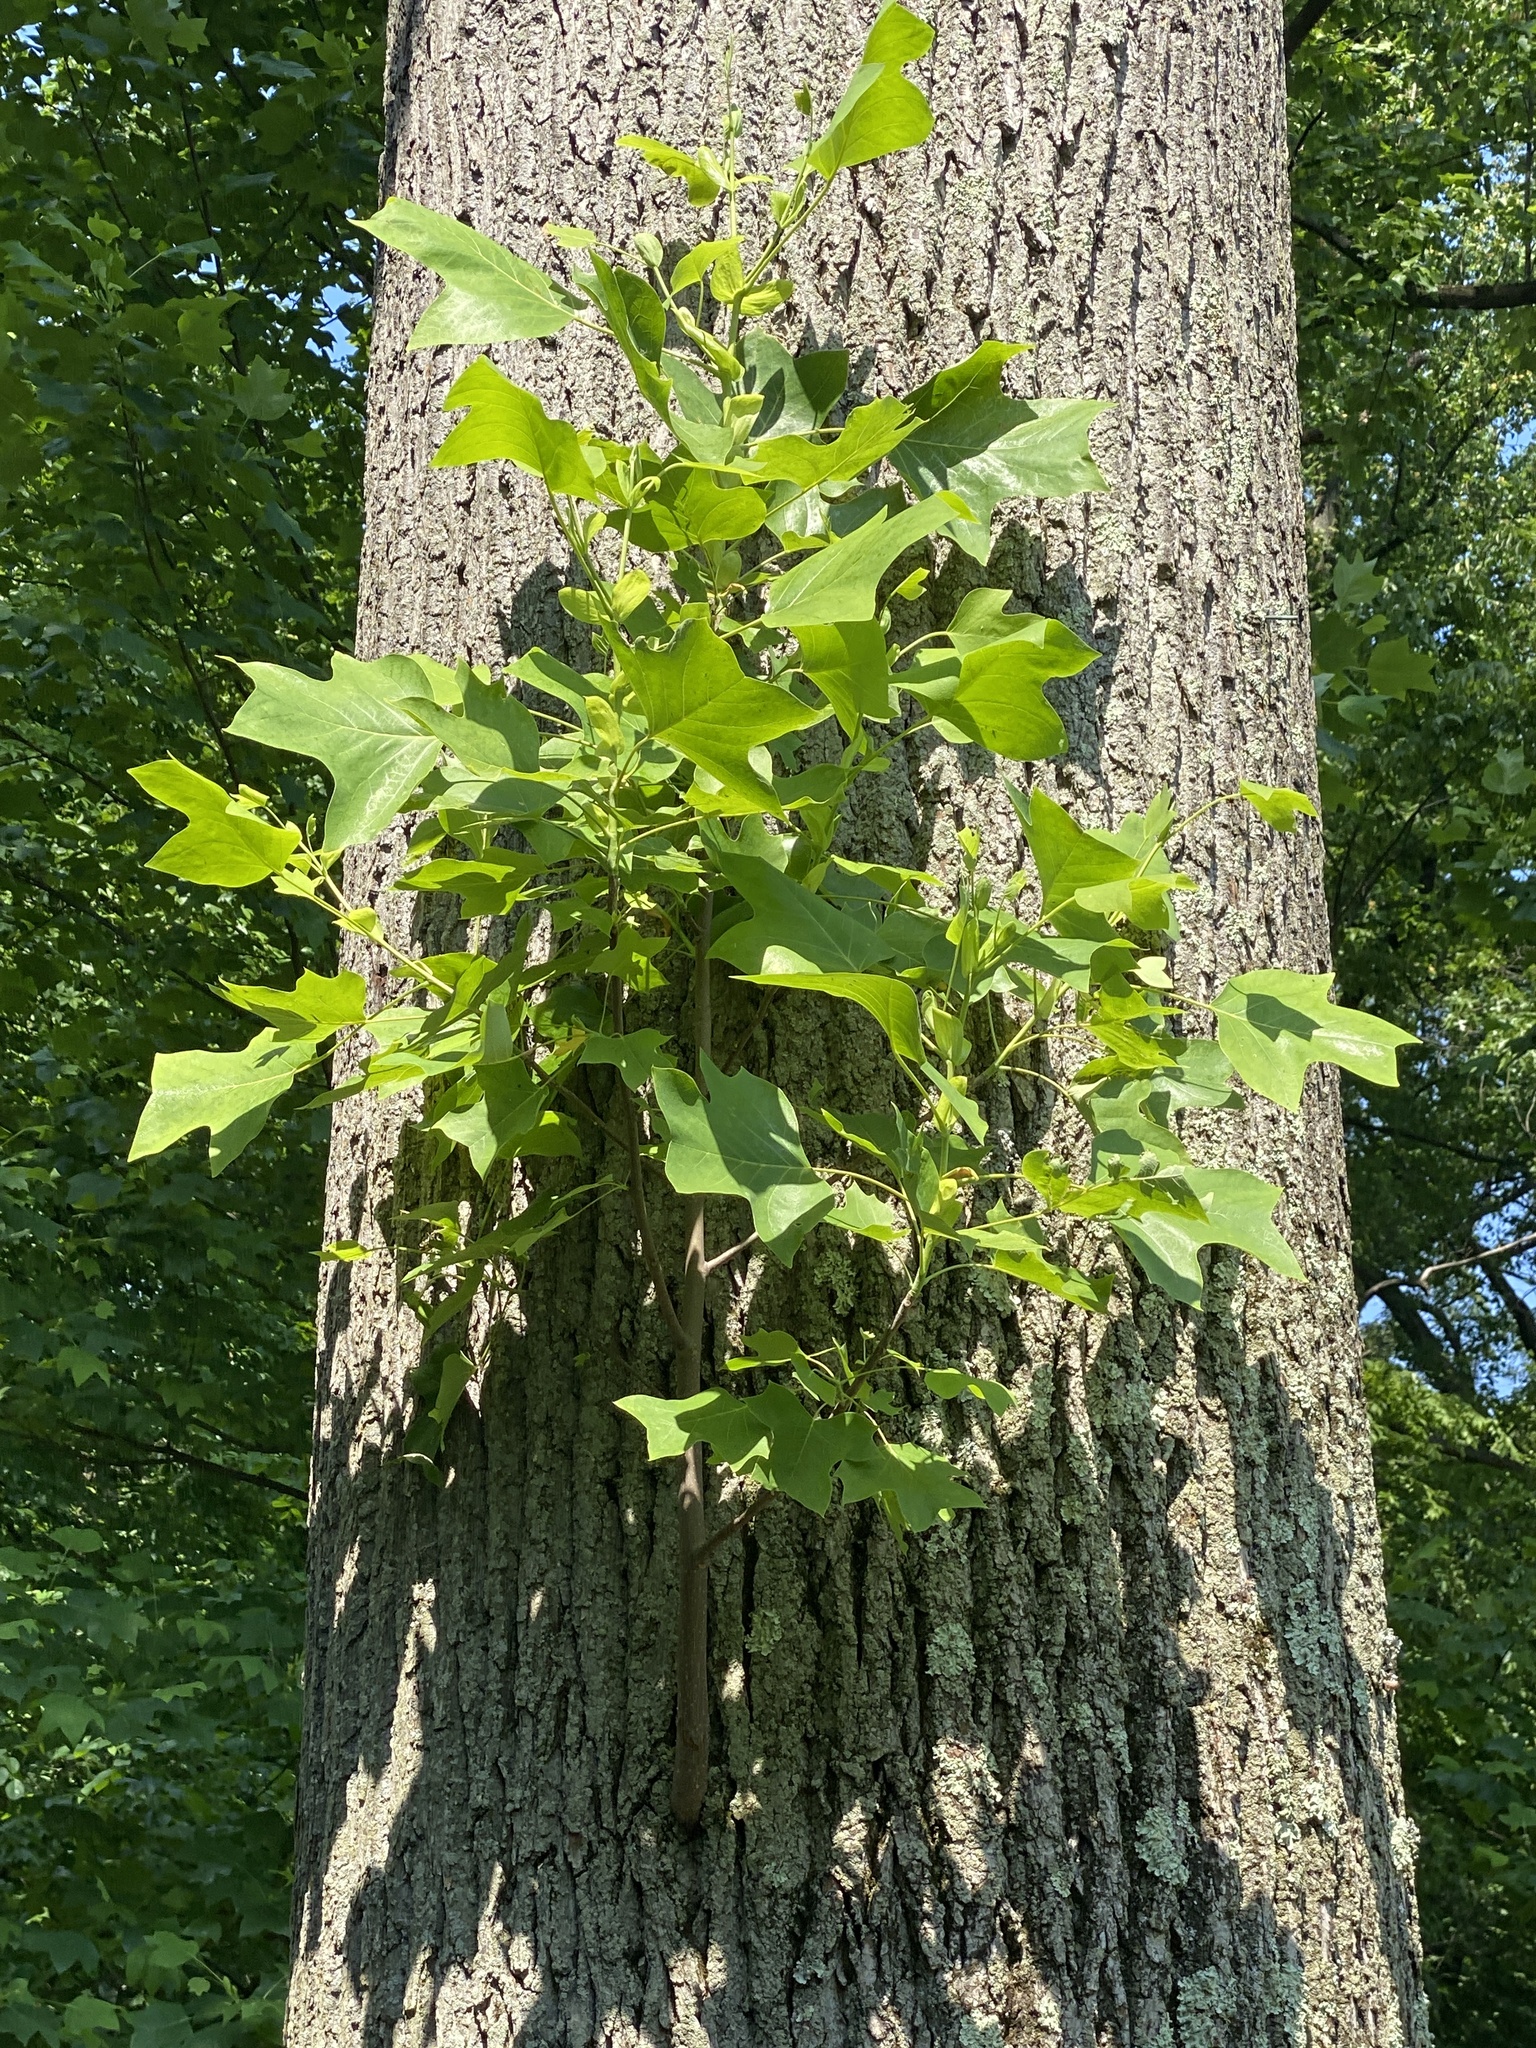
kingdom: Plantae
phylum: Tracheophyta
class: Magnoliopsida
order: Magnoliales
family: Magnoliaceae
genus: Liriodendron
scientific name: Liriodendron tulipifera
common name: Tulip tree
